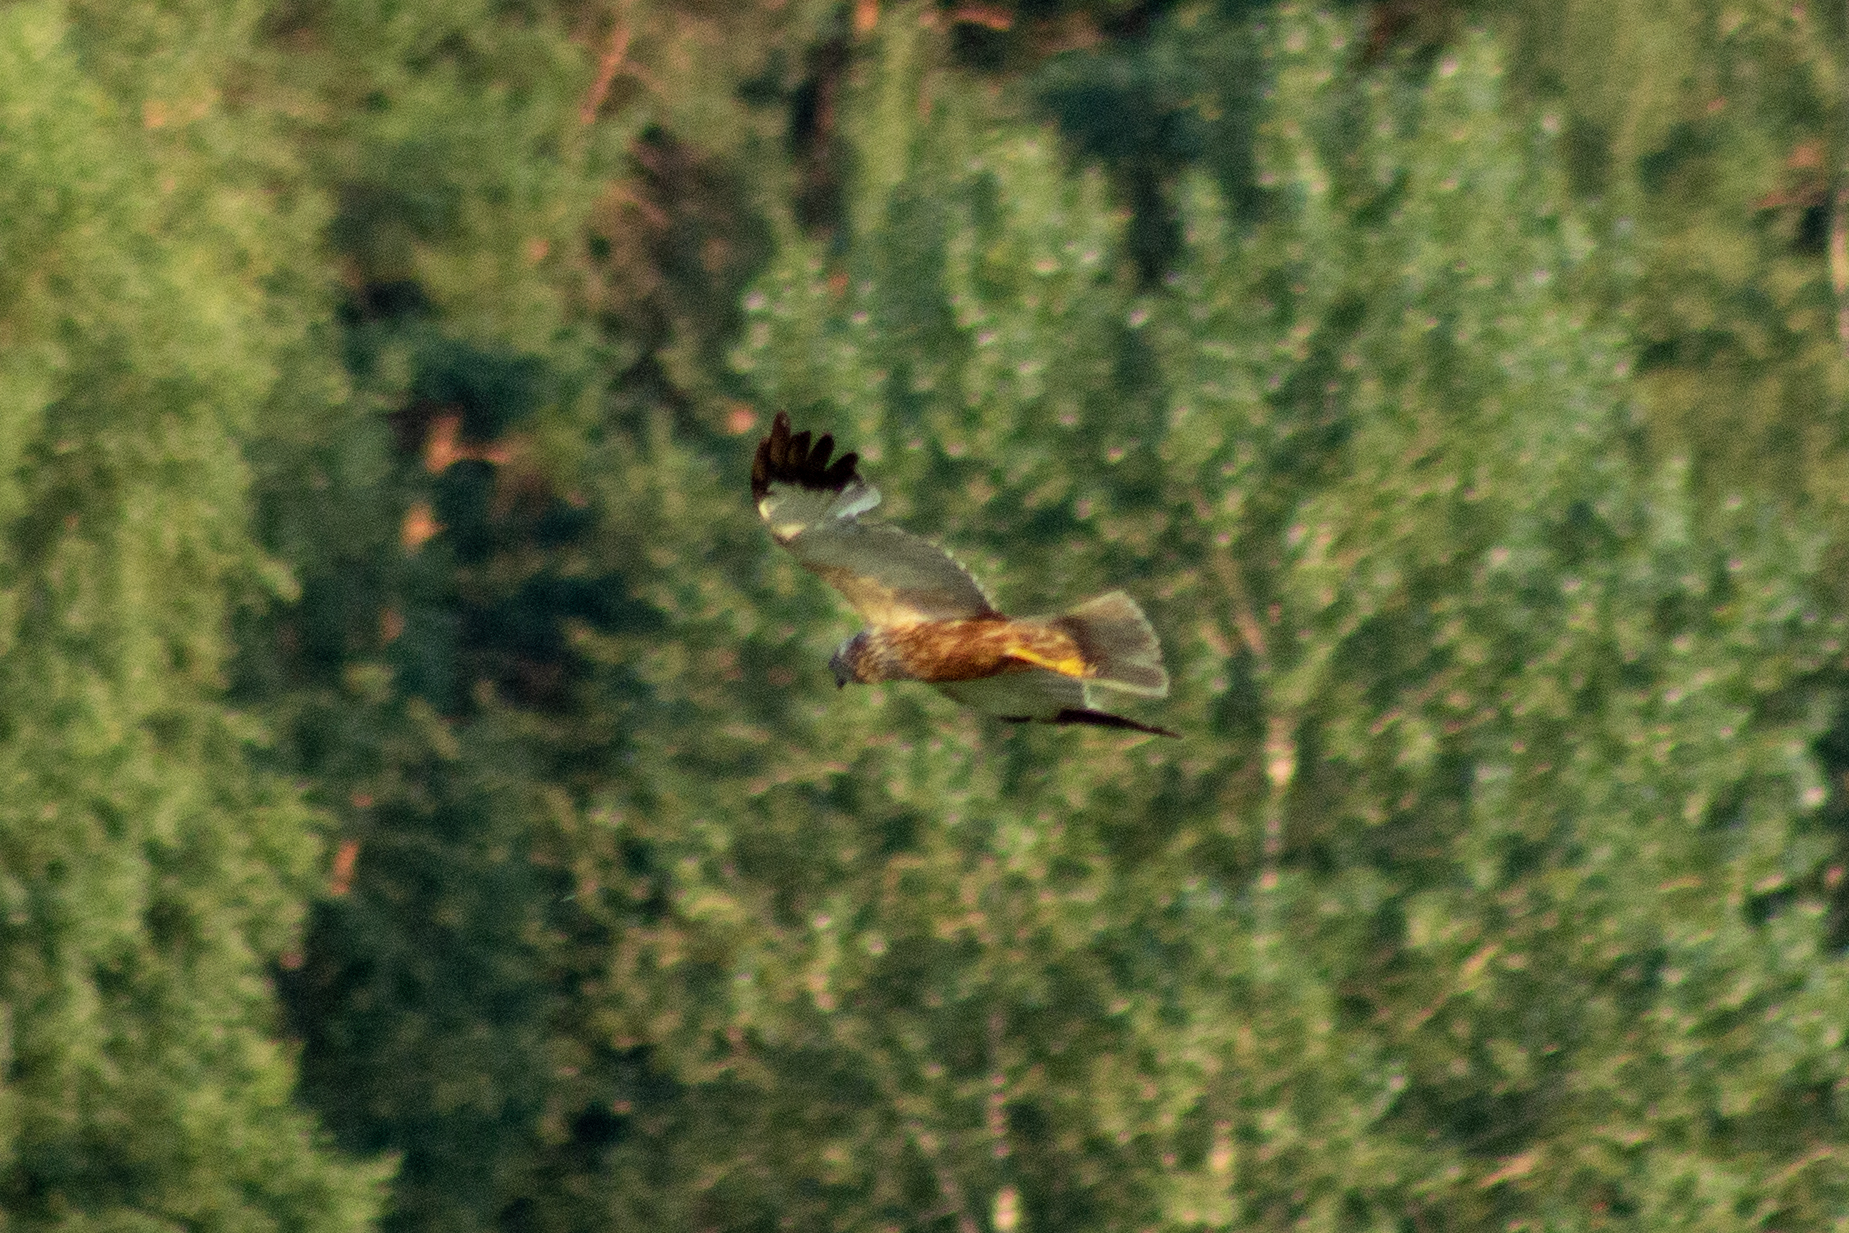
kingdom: Animalia
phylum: Chordata
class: Aves
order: Accipitriformes
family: Accipitridae
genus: Circus
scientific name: Circus aeruginosus
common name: Western marsh harrier
